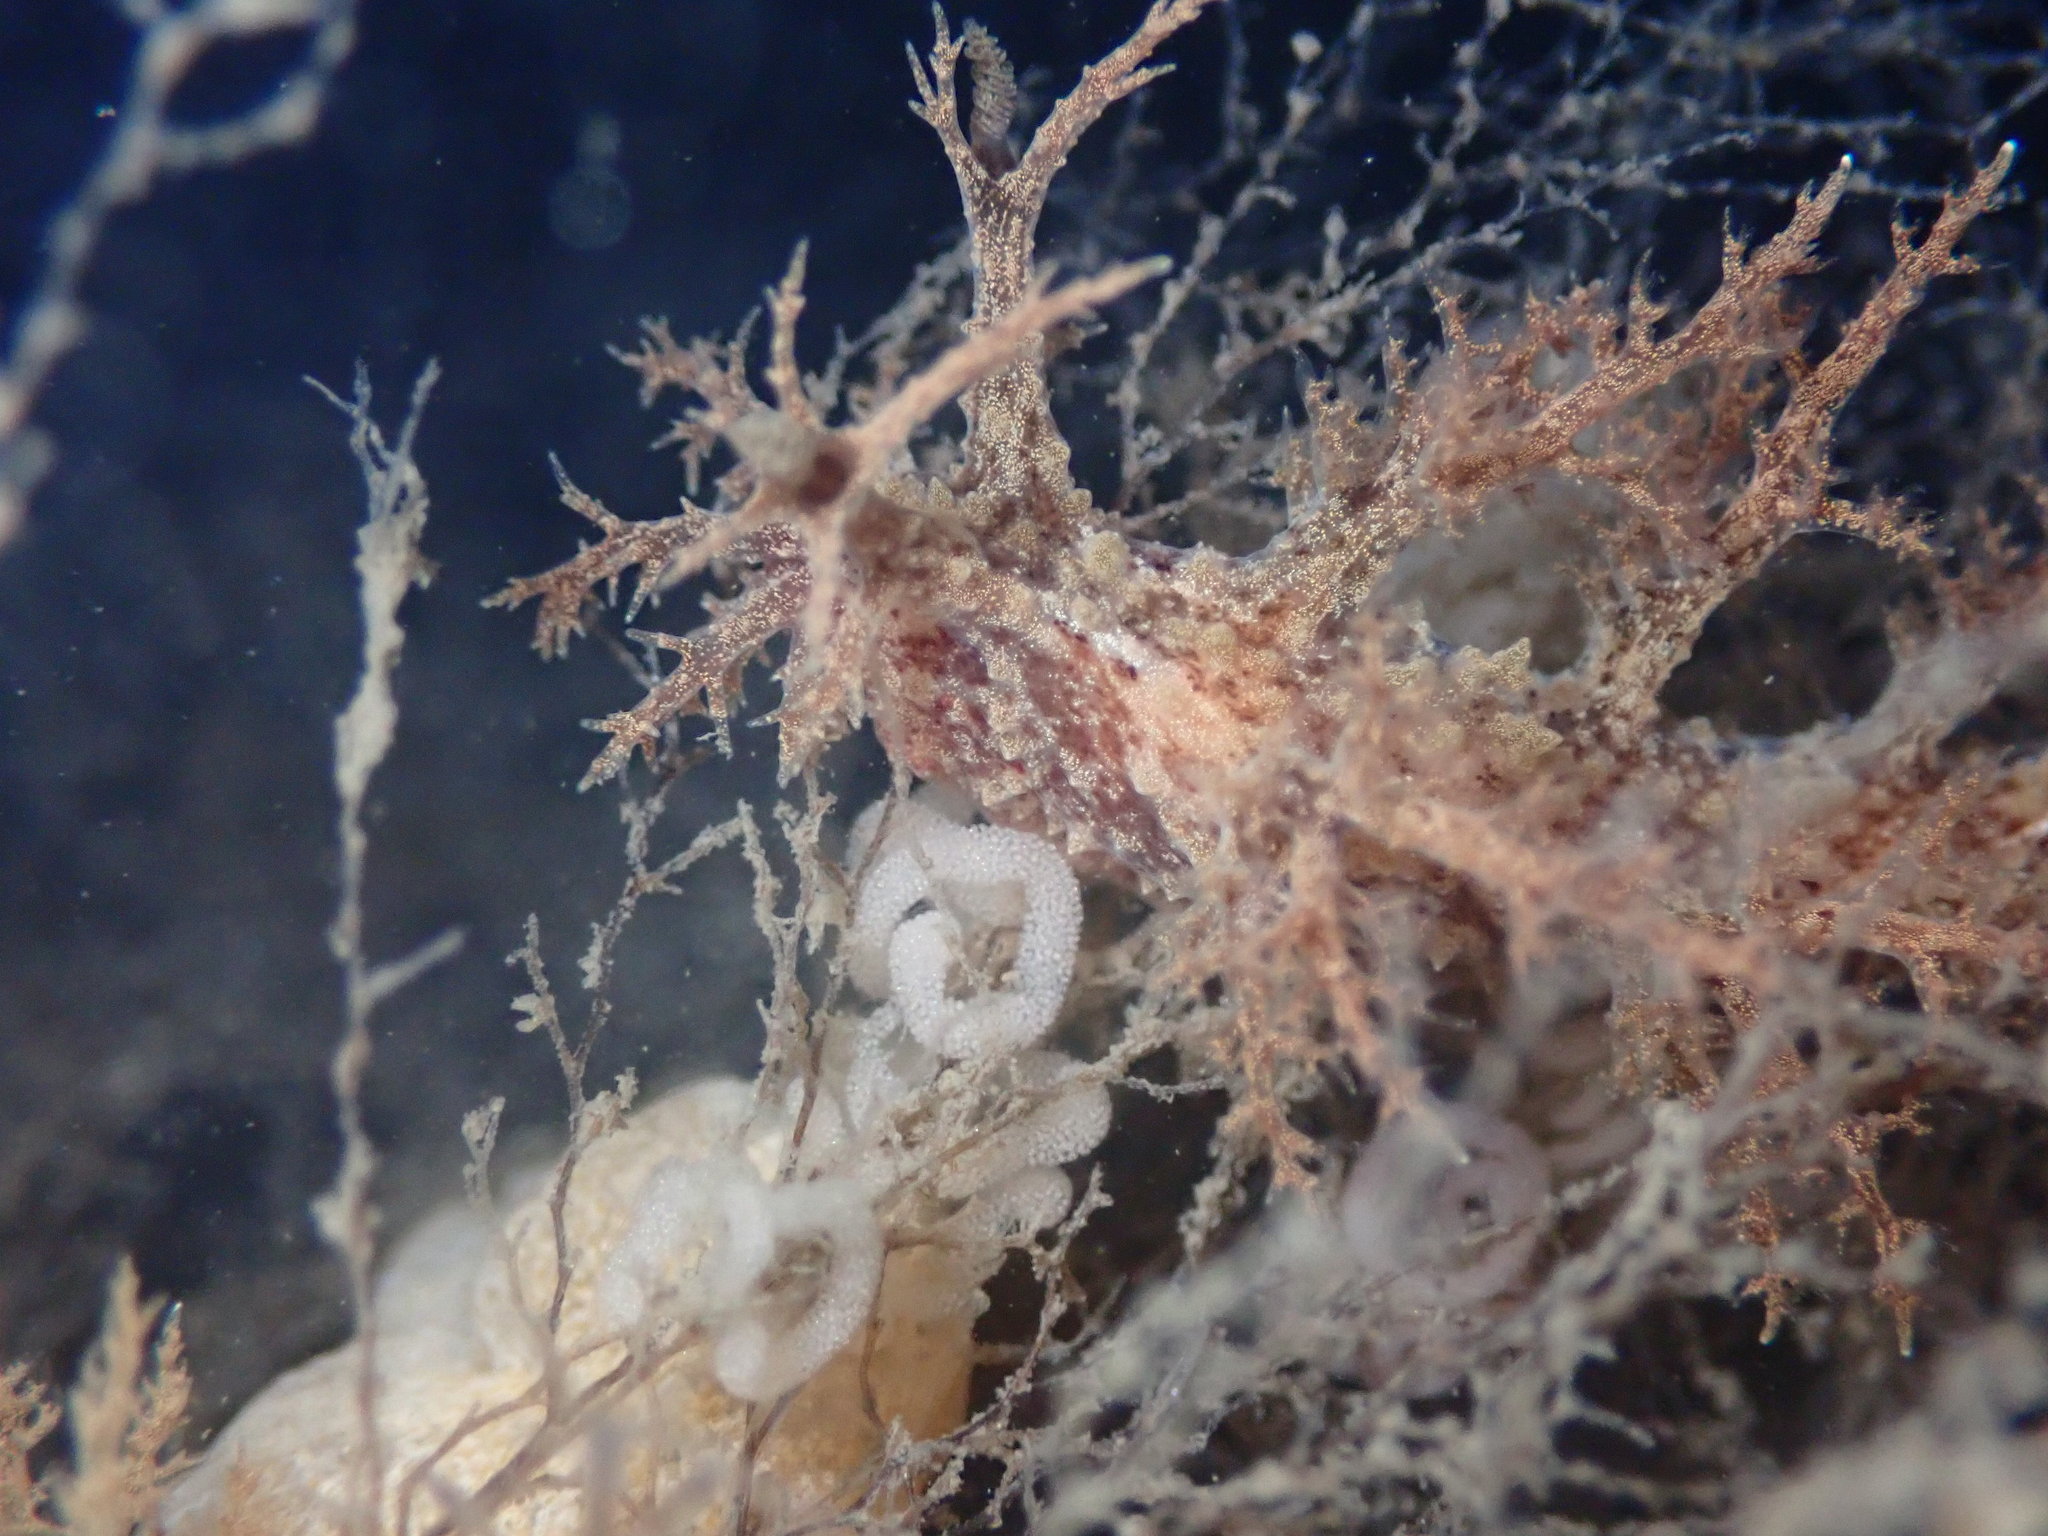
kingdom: Animalia
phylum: Mollusca
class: Gastropoda
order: Nudibranchia
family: Dendronotidae
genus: Dendronotus
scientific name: Dendronotus venustus
